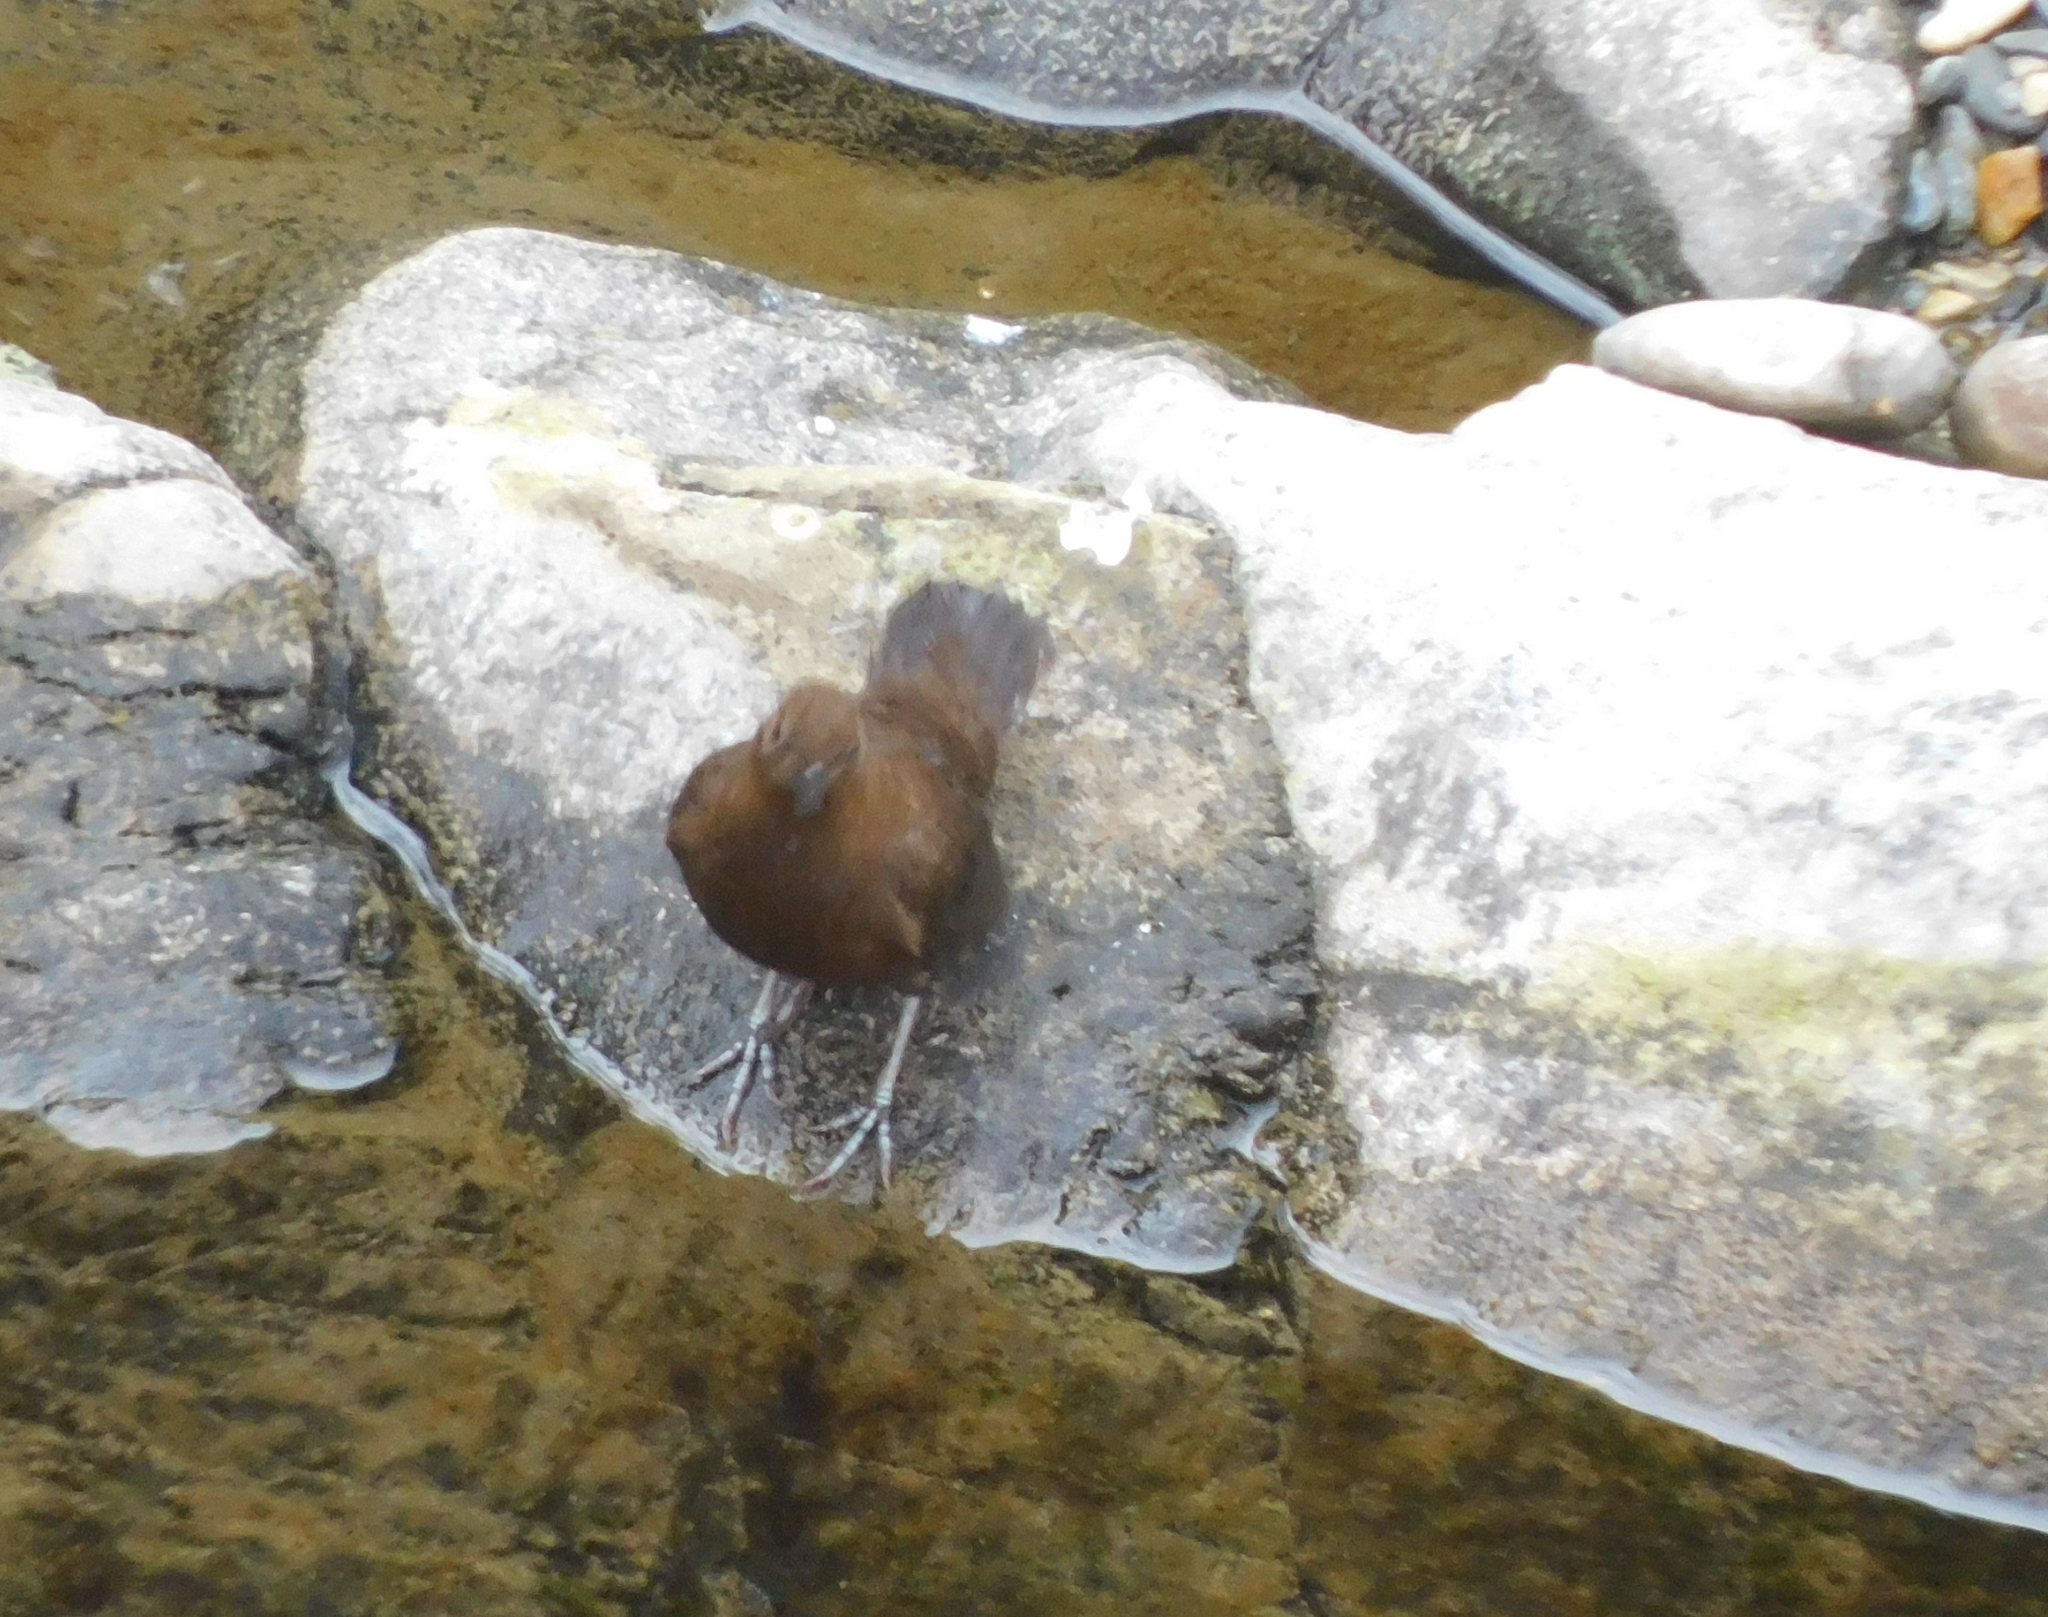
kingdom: Animalia
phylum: Chordata
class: Aves
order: Passeriformes
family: Cinclidae
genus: Cinclus
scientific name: Cinclus pallasii
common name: Brown dipper
